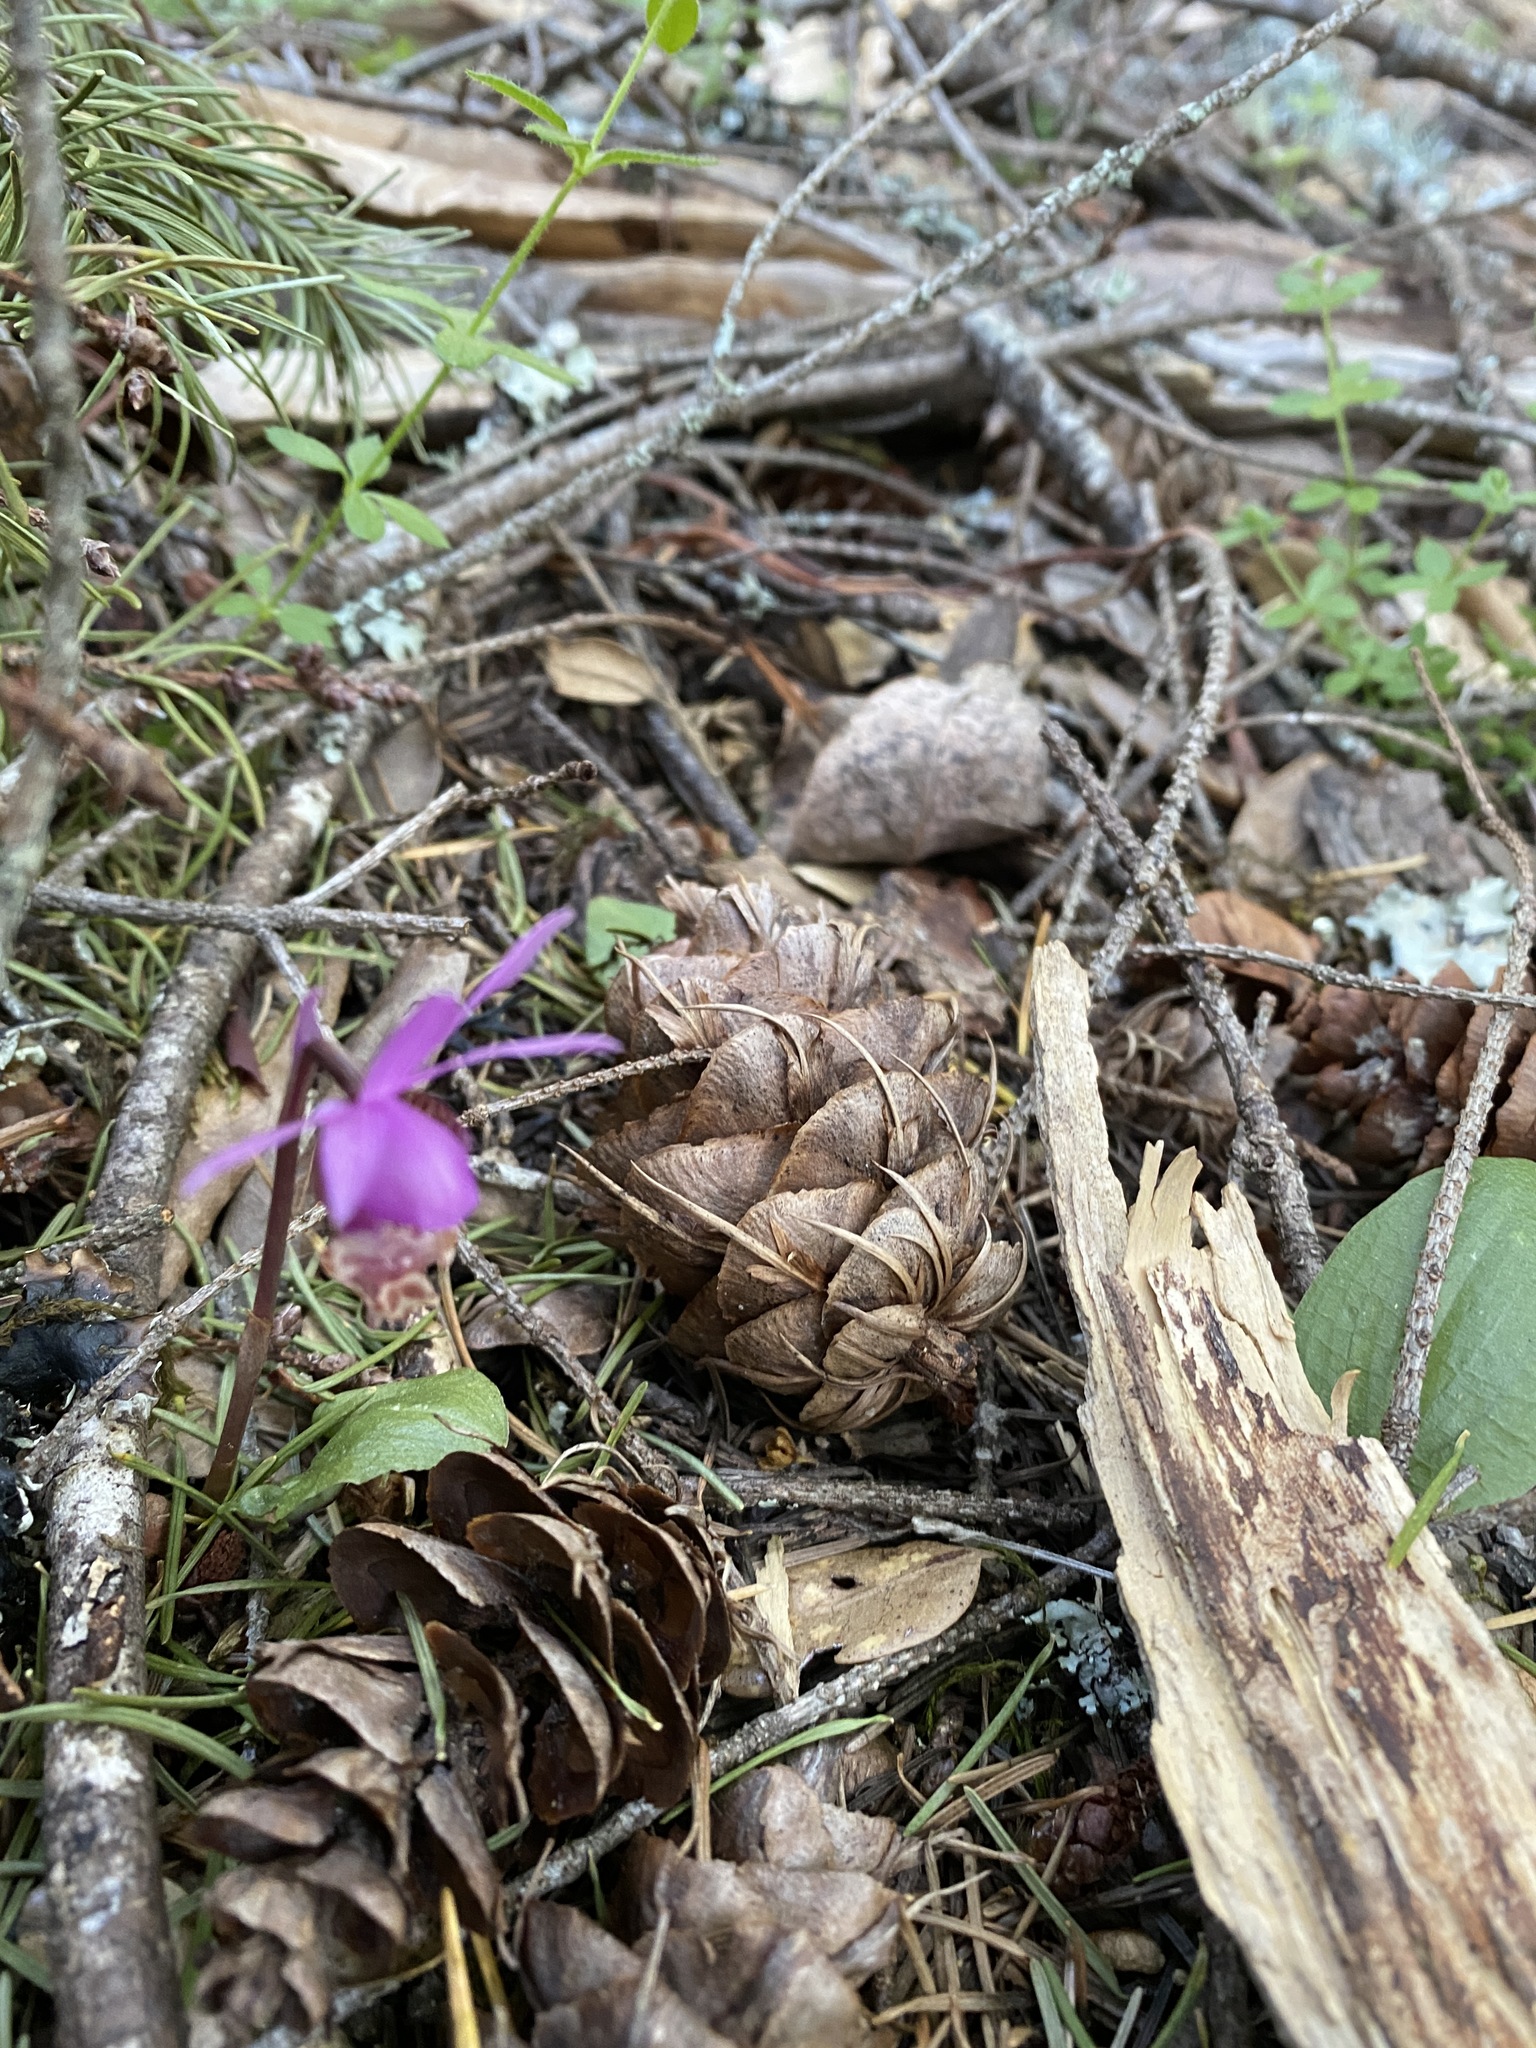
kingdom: Plantae
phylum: Tracheophyta
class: Liliopsida
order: Asparagales
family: Orchidaceae
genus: Calypso
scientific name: Calypso bulbosa
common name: Calypso
